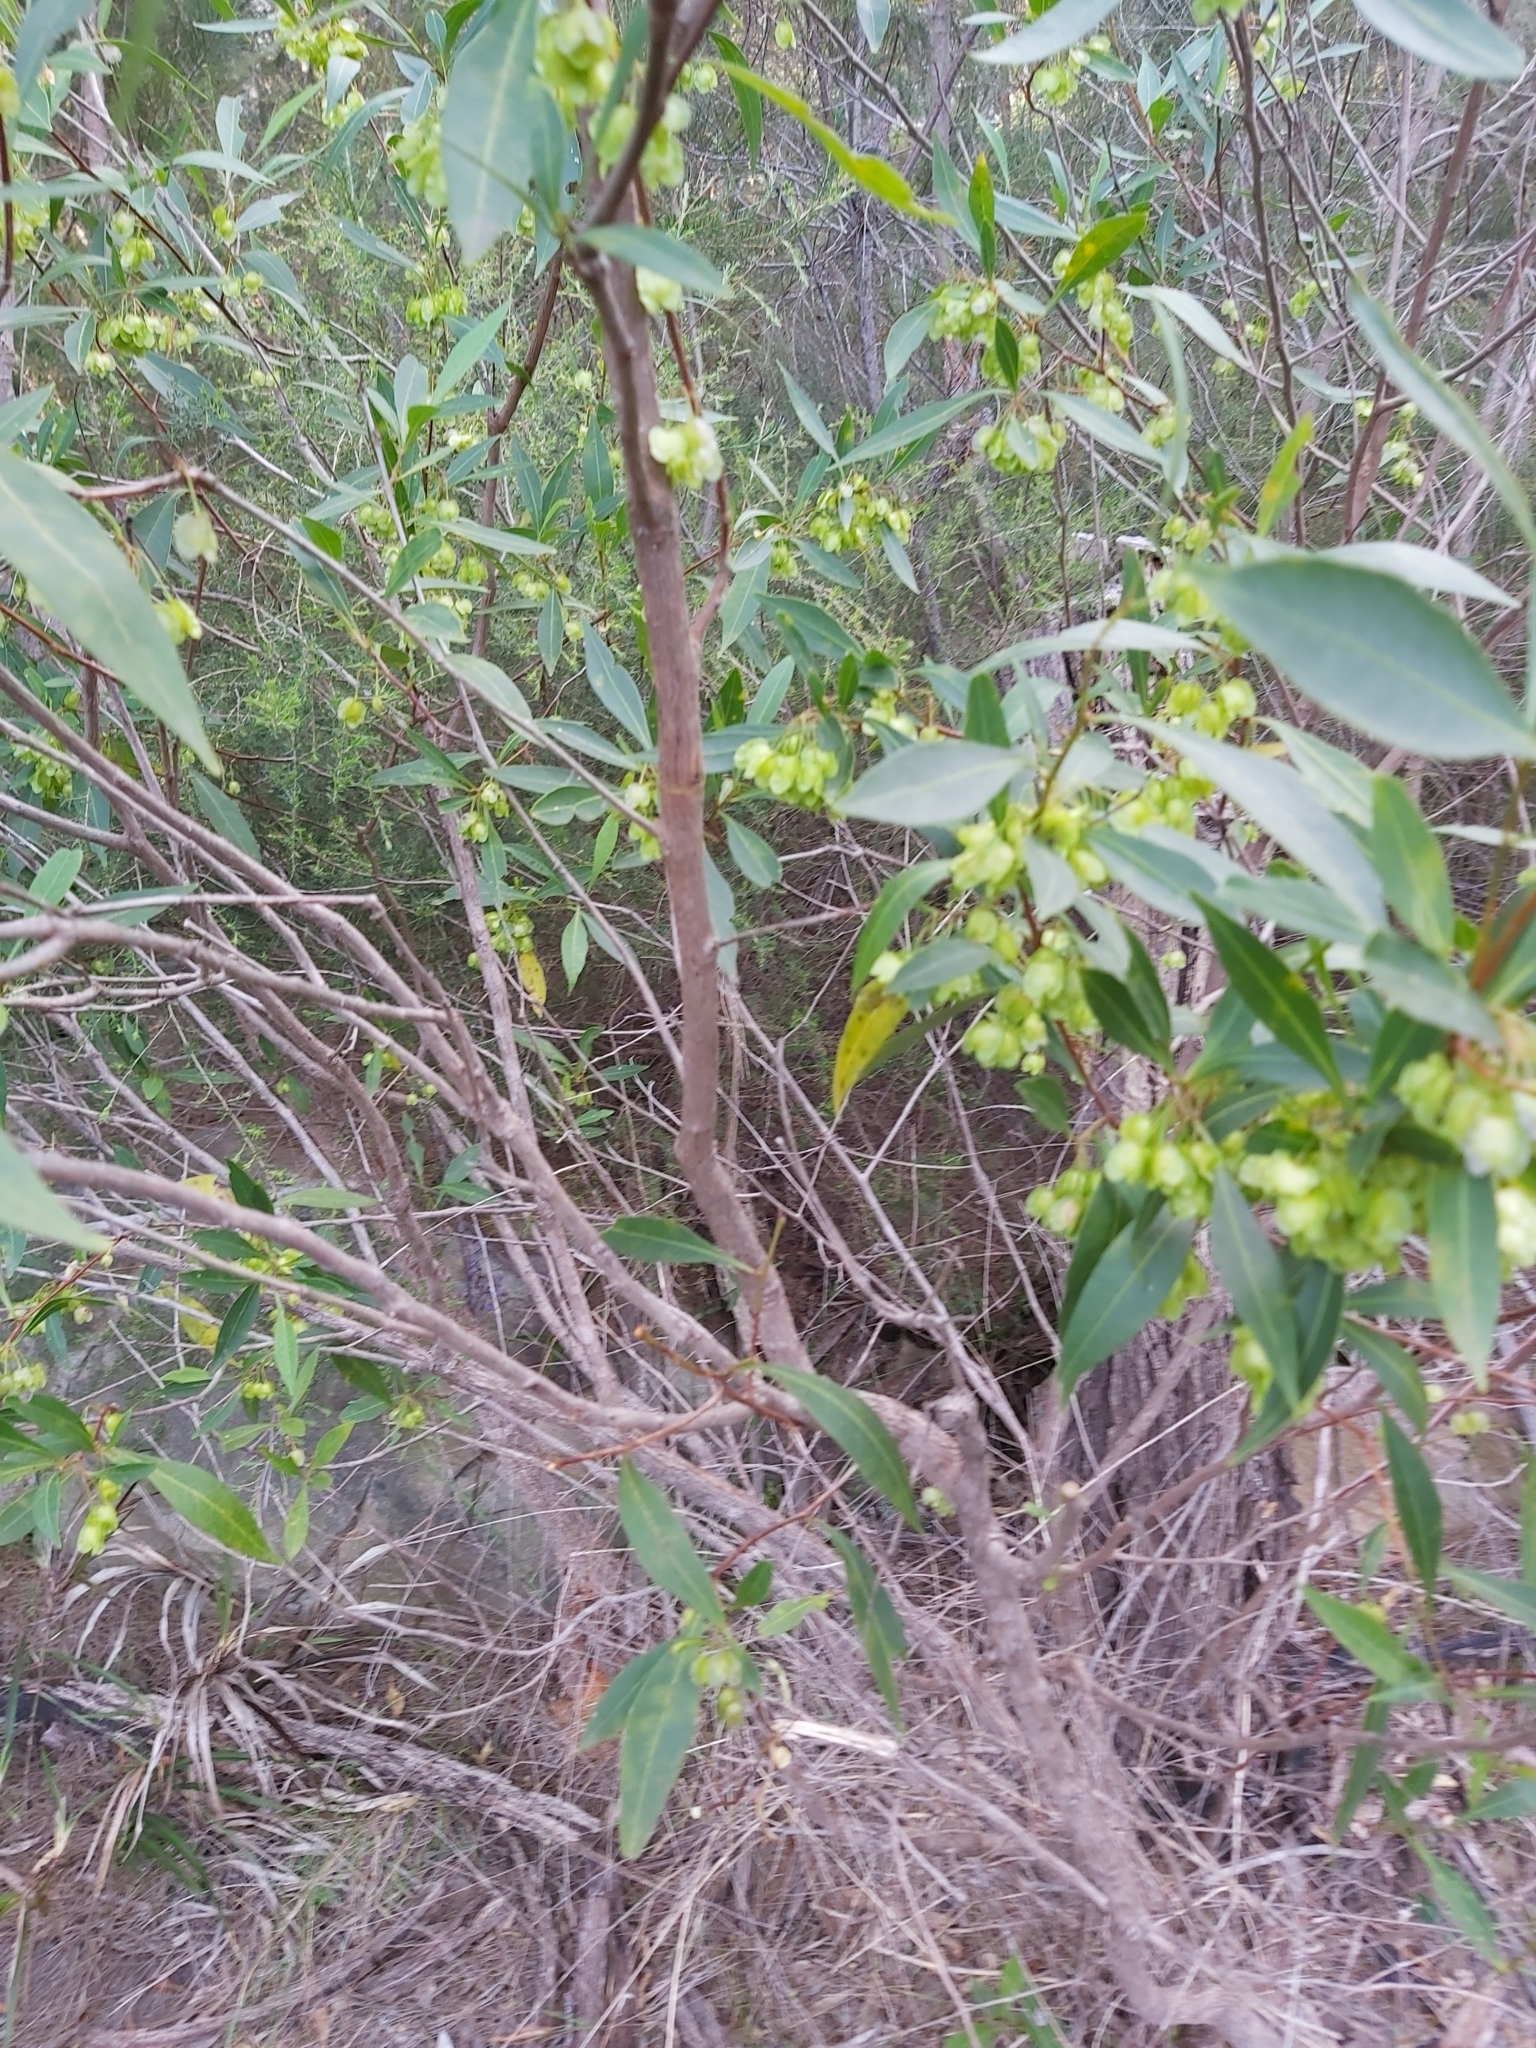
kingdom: Plantae
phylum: Tracheophyta
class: Magnoliopsida
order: Sapindales
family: Sapindaceae
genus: Dodonaea
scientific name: Dodonaea triquetra
